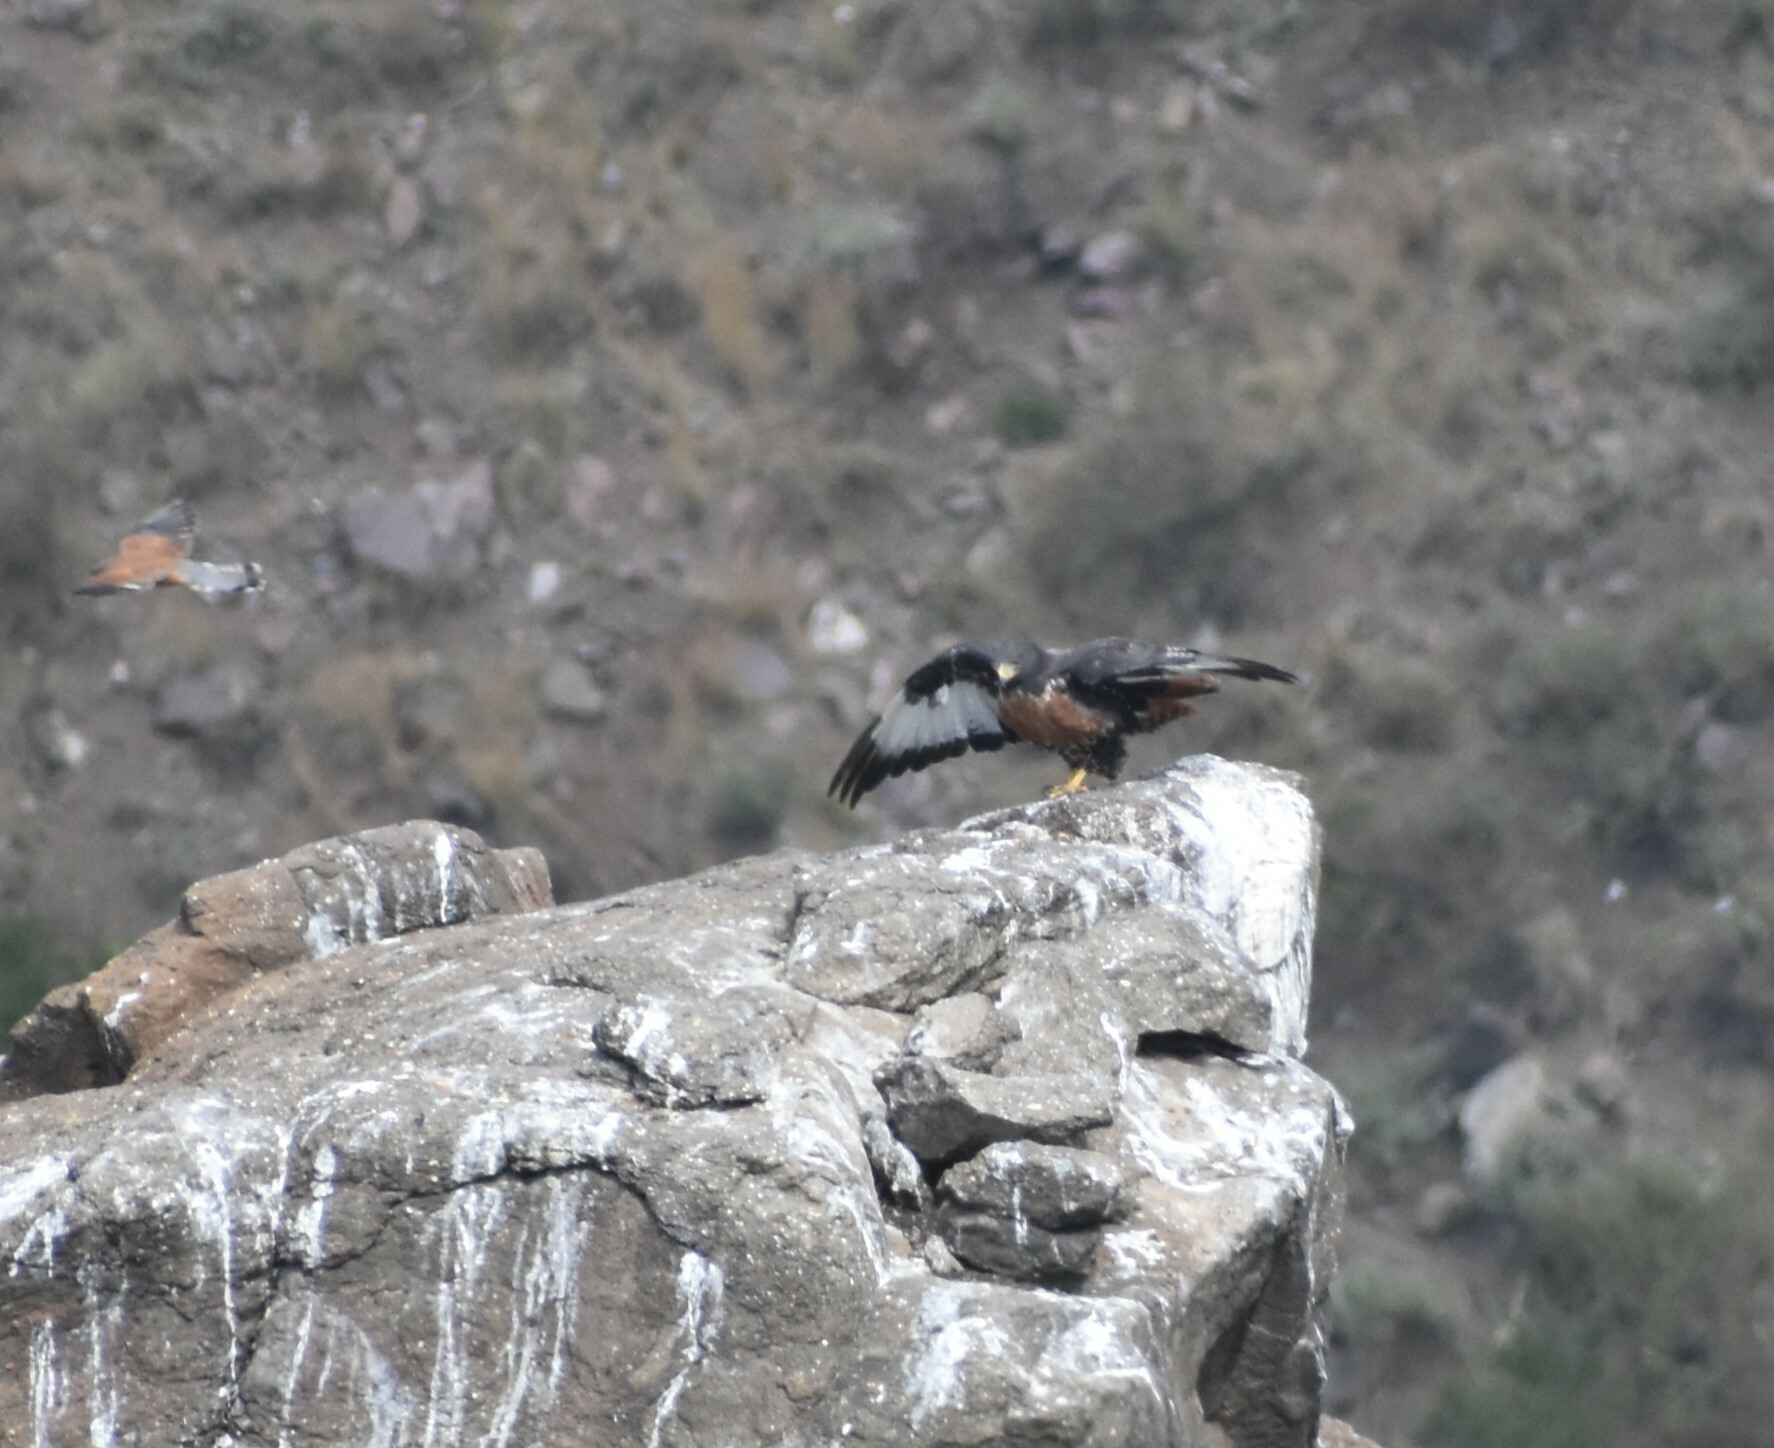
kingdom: Animalia
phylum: Chordata
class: Aves
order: Accipitriformes
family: Accipitridae
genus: Buteo
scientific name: Buteo rufofuscus
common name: Jackal buzzard
